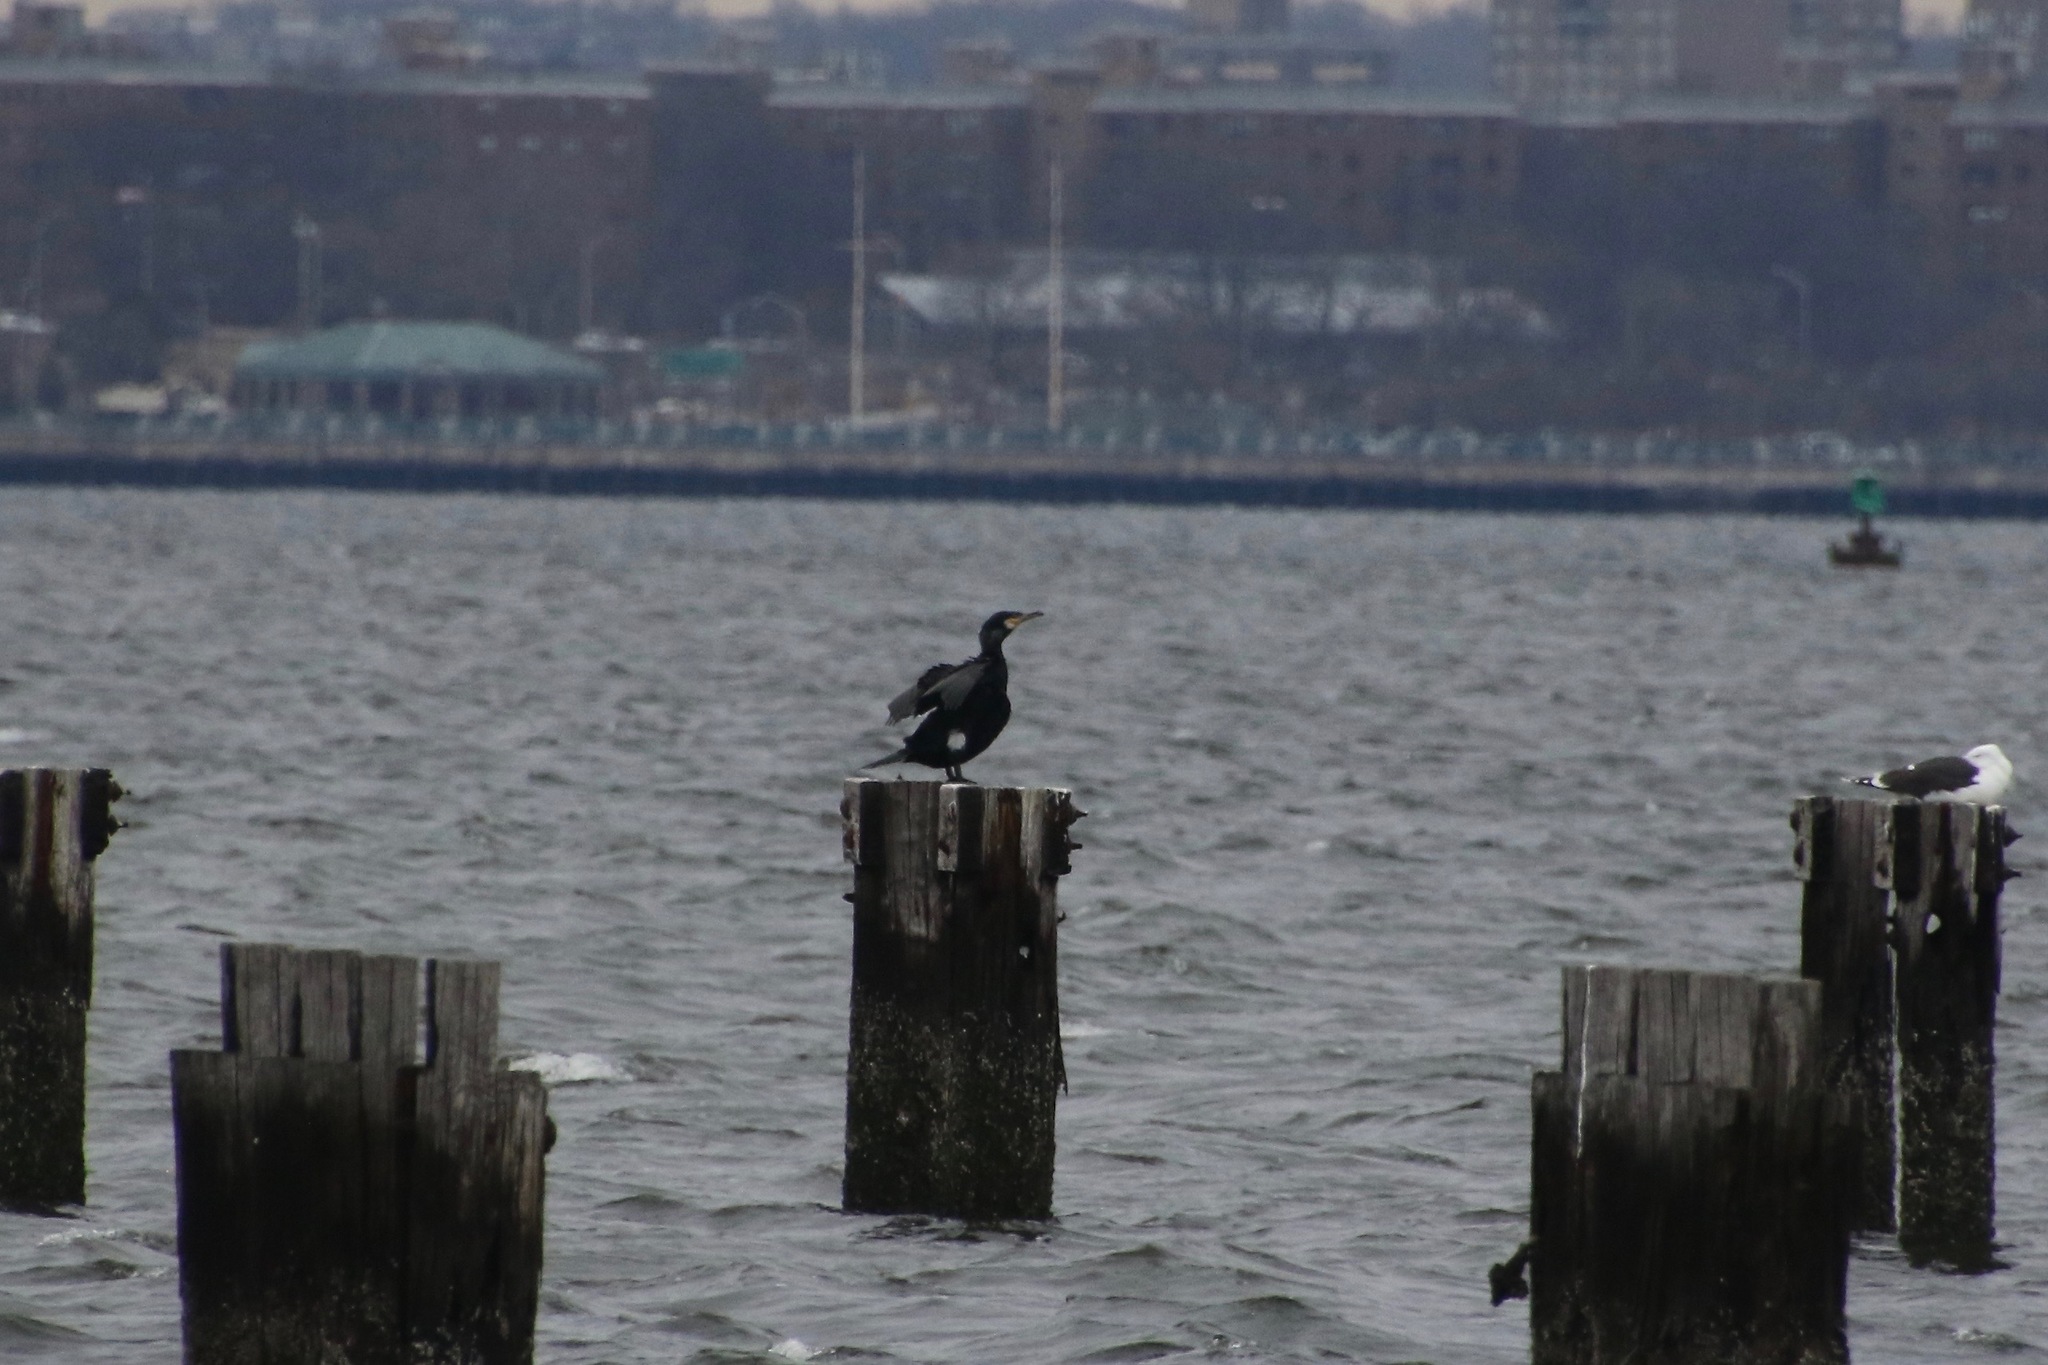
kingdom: Animalia
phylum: Chordata
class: Aves
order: Suliformes
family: Phalacrocoracidae
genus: Phalacrocorax
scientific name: Phalacrocorax carbo
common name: Great cormorant
